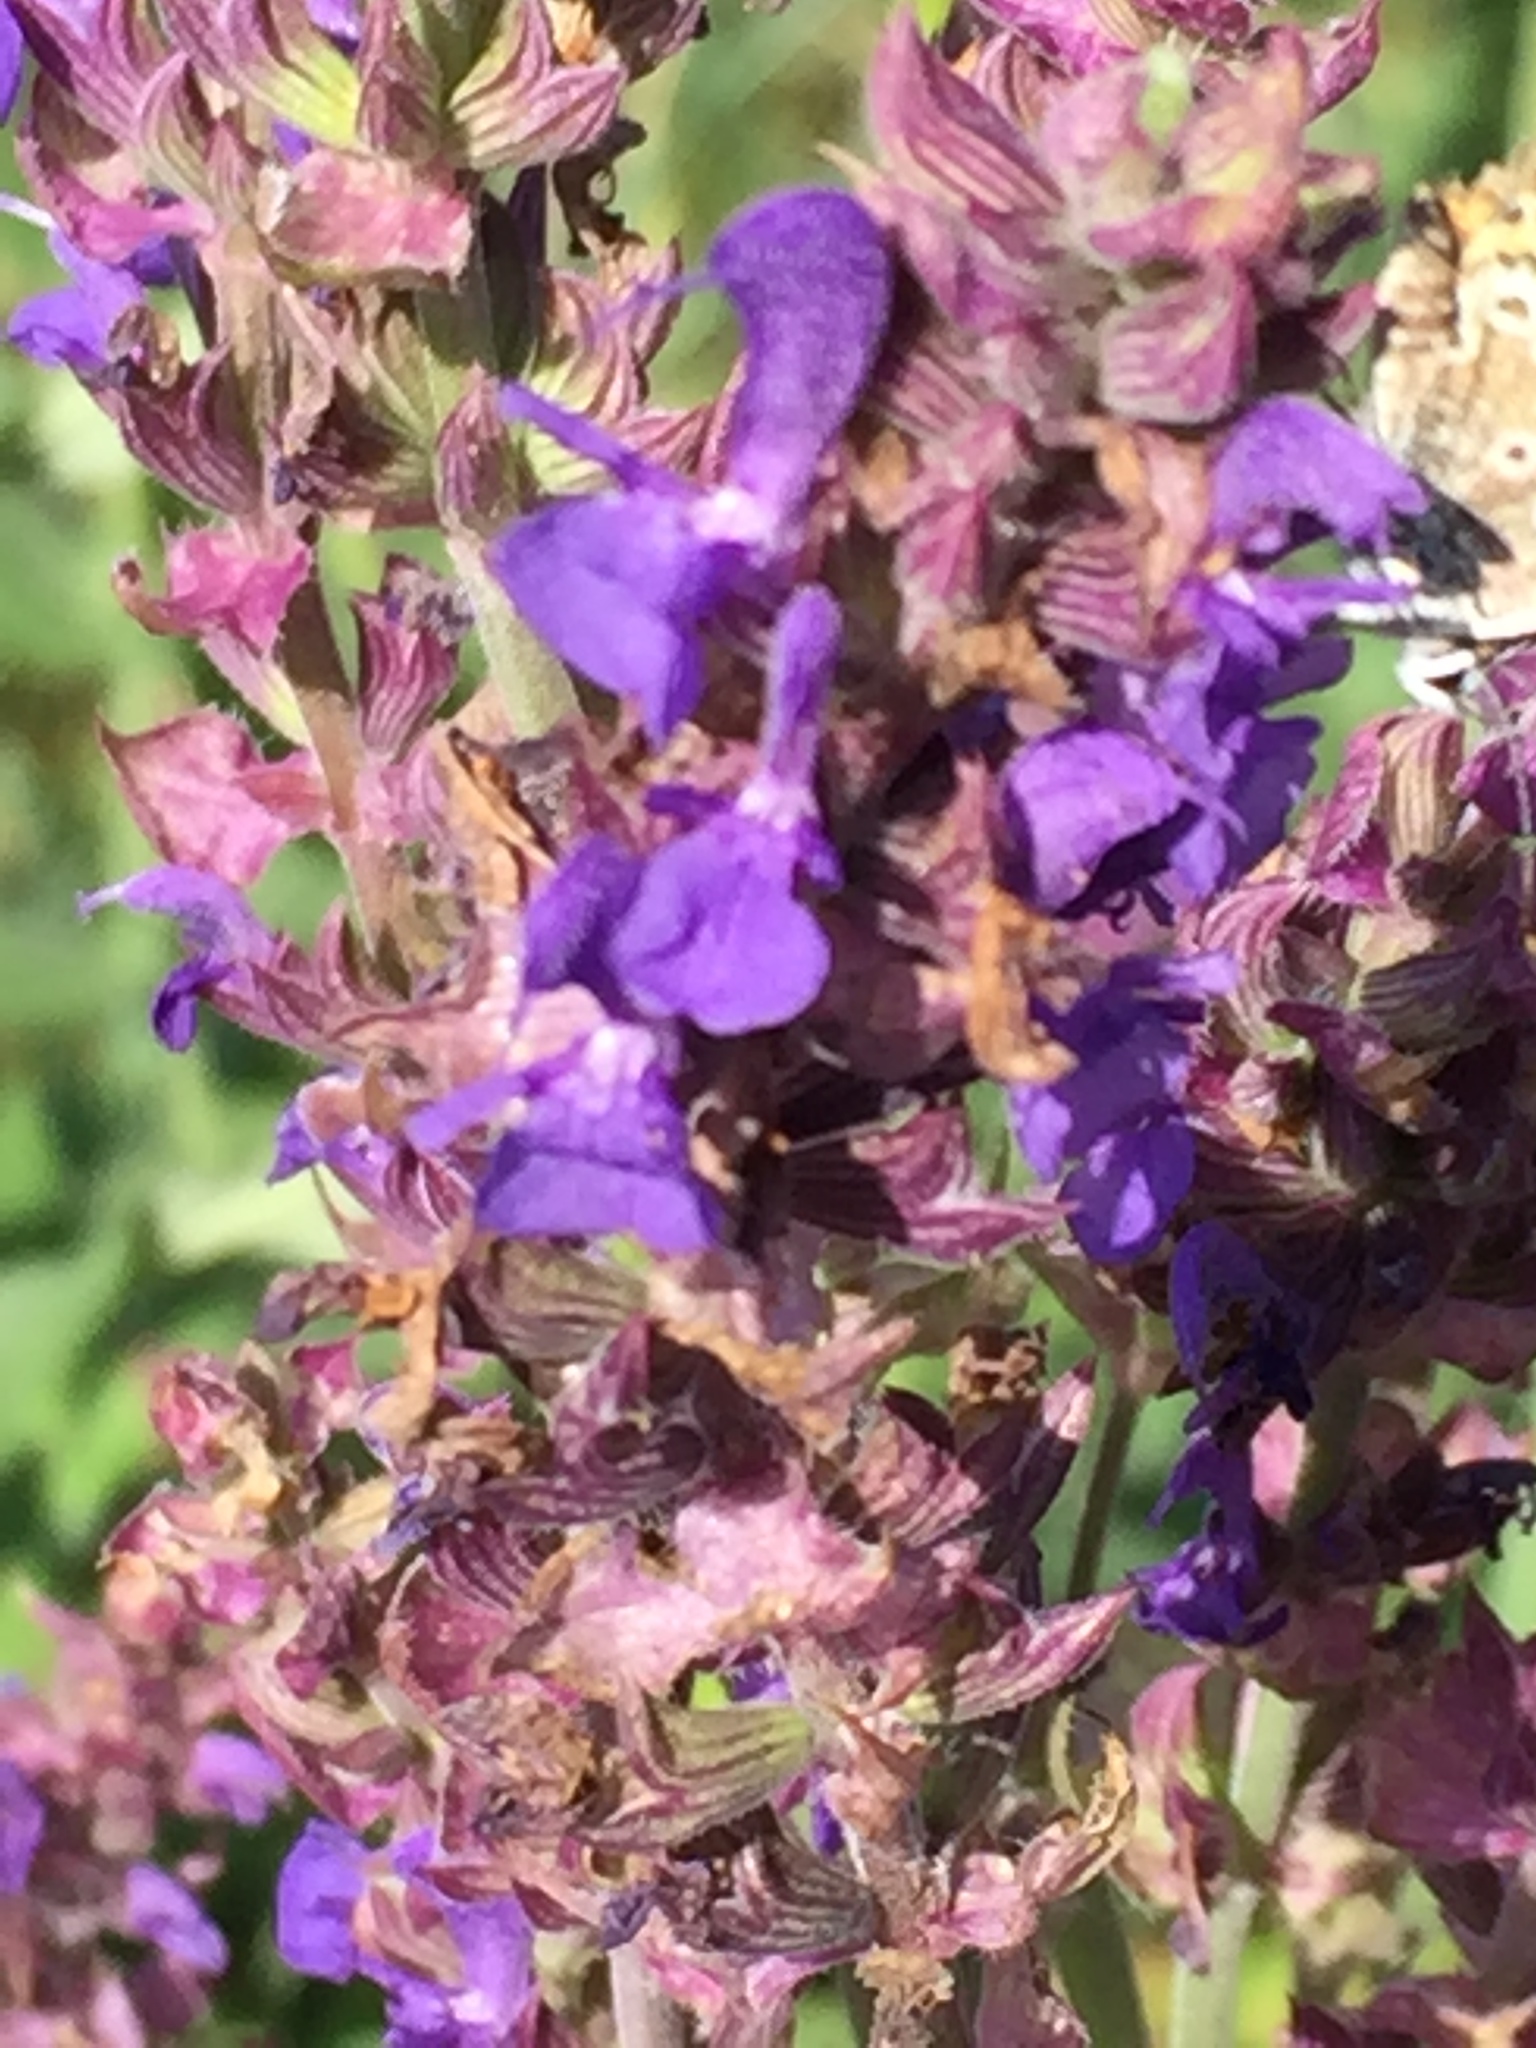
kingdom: Plantae
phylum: Tracheophyta
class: Magnoliopsida
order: Lamiales
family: Lamiaceae
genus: Salvia
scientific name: Salvia nemorosa
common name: Balkan clary
